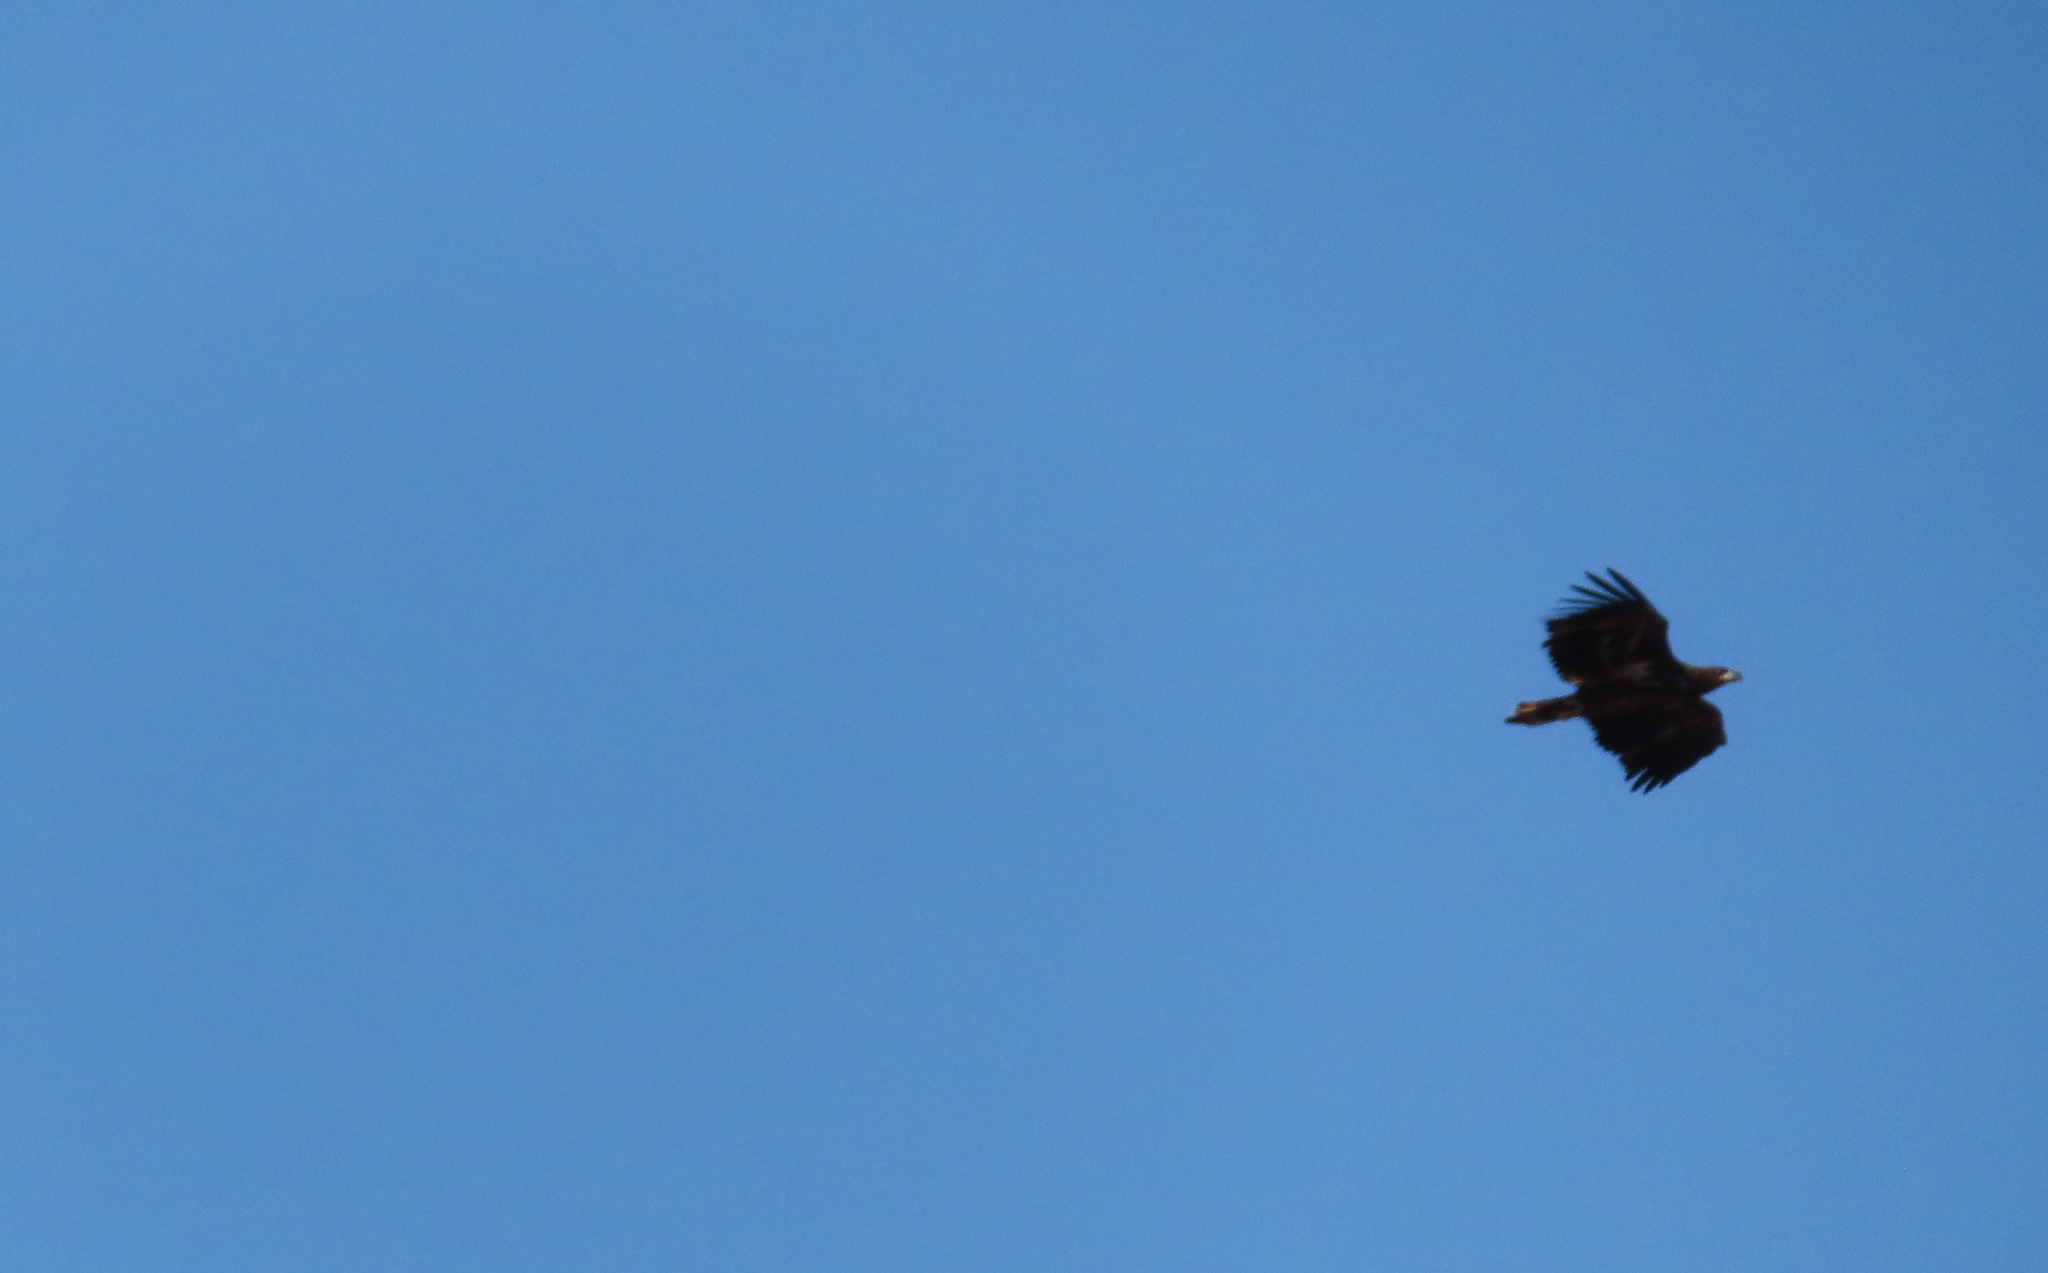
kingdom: Animalia
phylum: Chordata
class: Aves
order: Accipitriformes
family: Accipitridae
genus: Haliaeetus
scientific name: Haliaeetus albicilla
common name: White-tailed eagle
